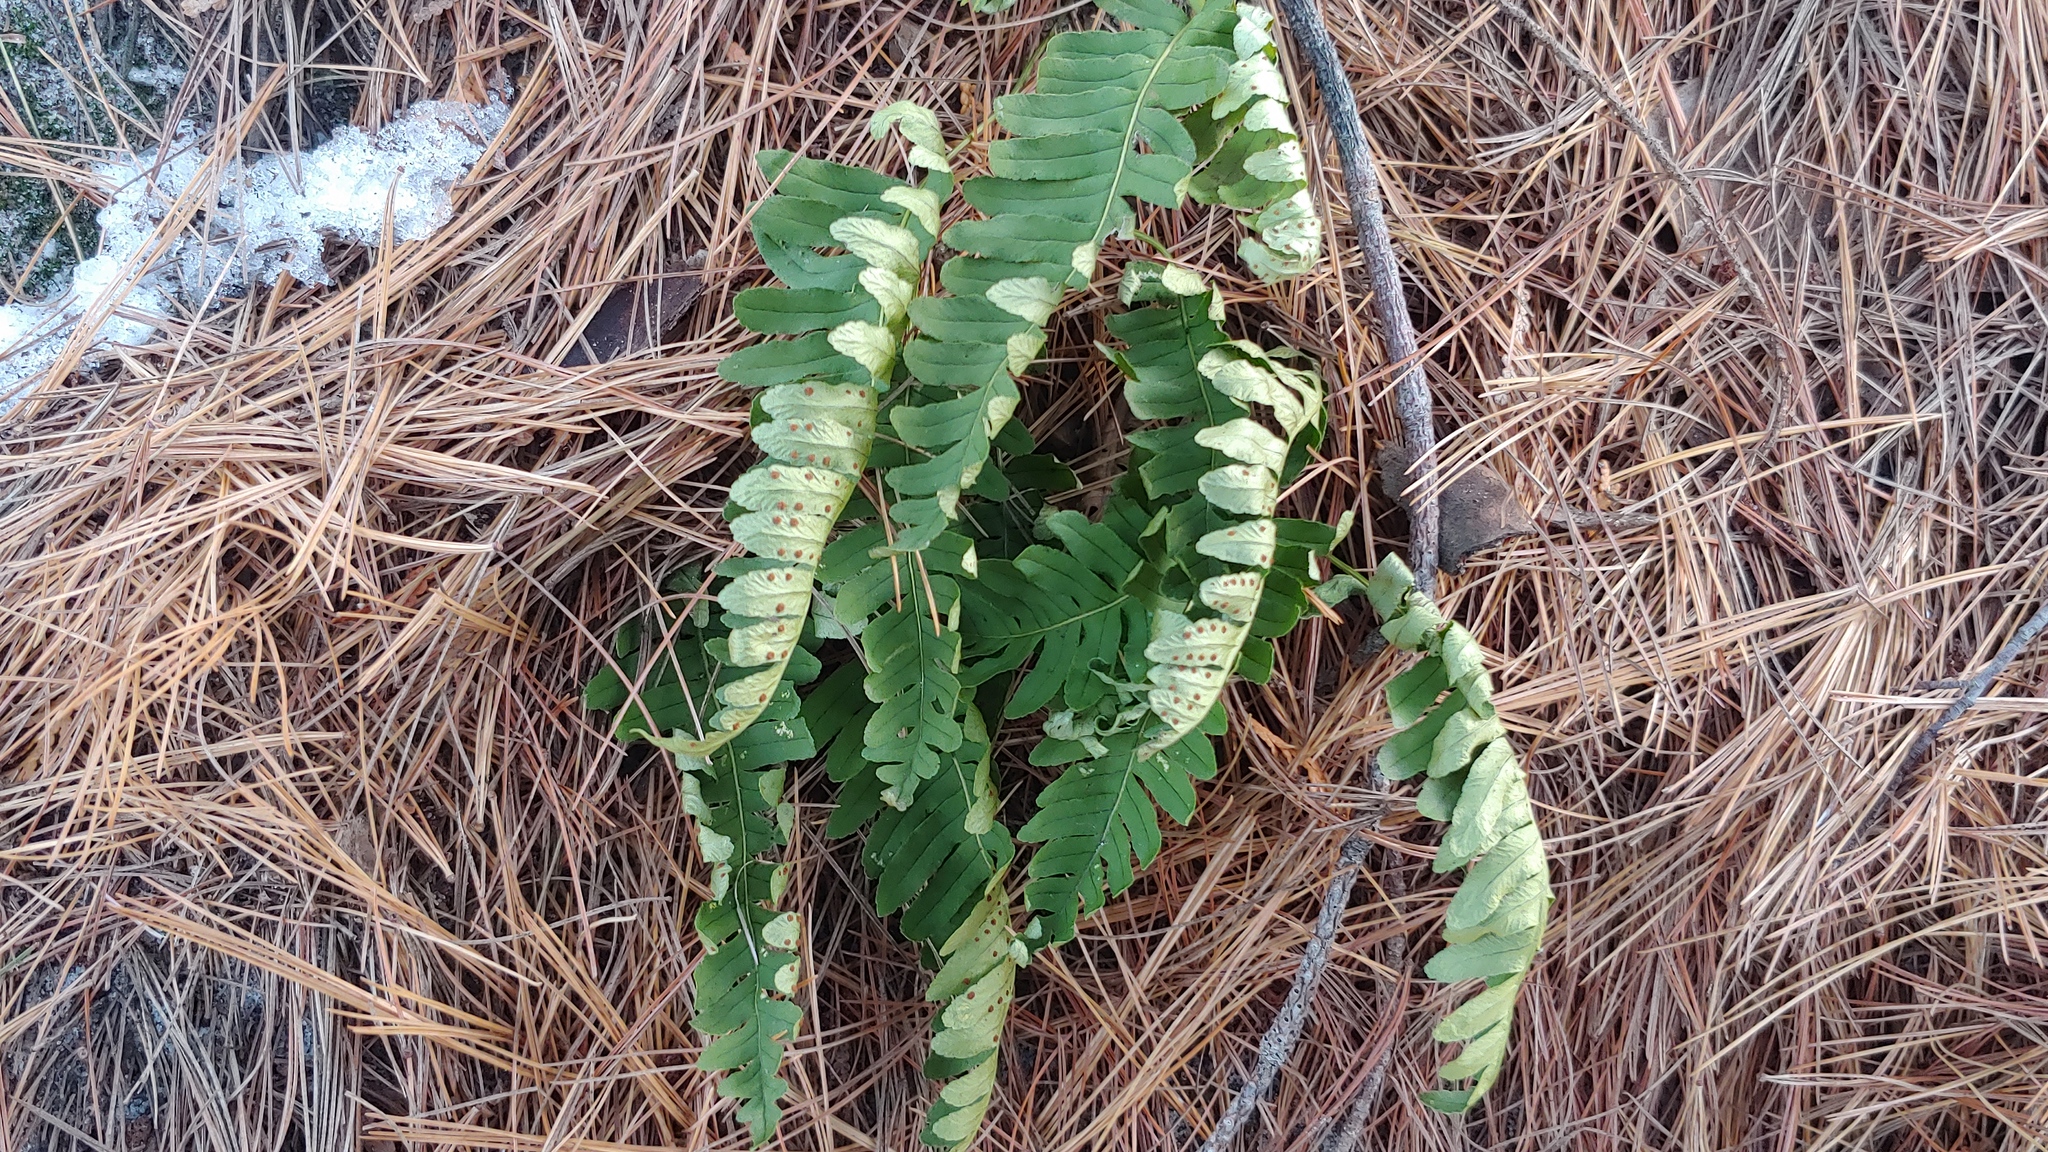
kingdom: Plantae
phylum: Tracheophyta
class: Polypodiopsida
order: Polypodiales
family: Polypodiaceae
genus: Polypodium
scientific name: Polypodium virginianum
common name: American wall fern
